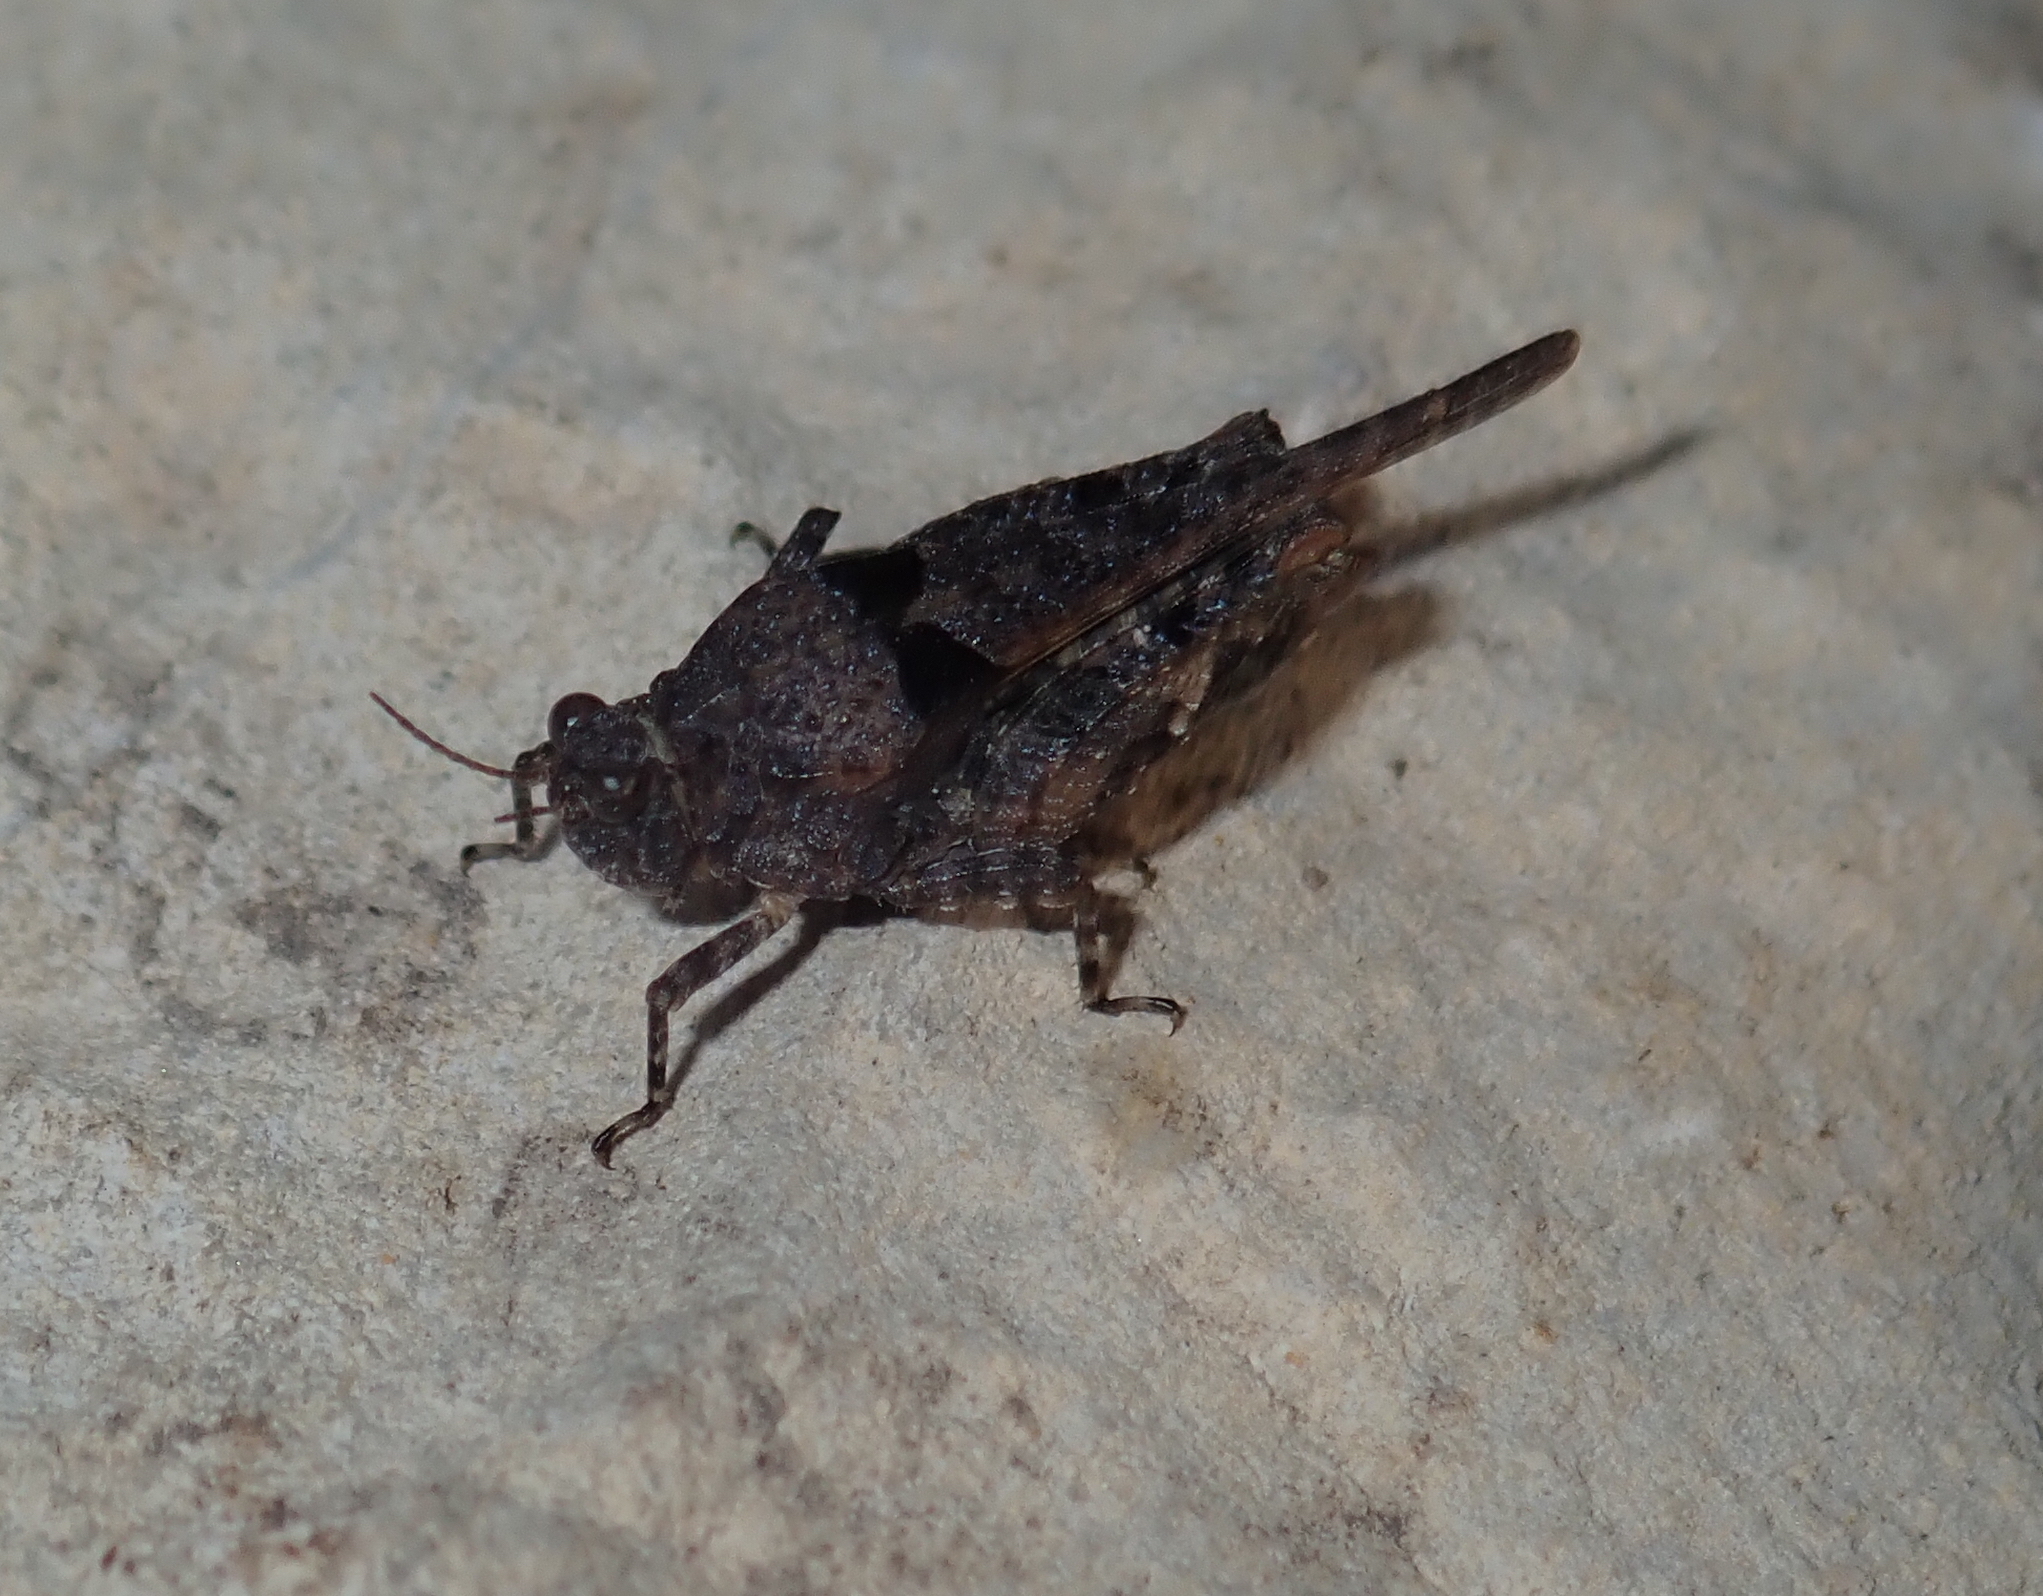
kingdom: Animalia
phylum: Arthropoda
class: Insecta
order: Orthoptera
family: Tetrigidae
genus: Paratettix
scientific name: Paratettix meridionalis
